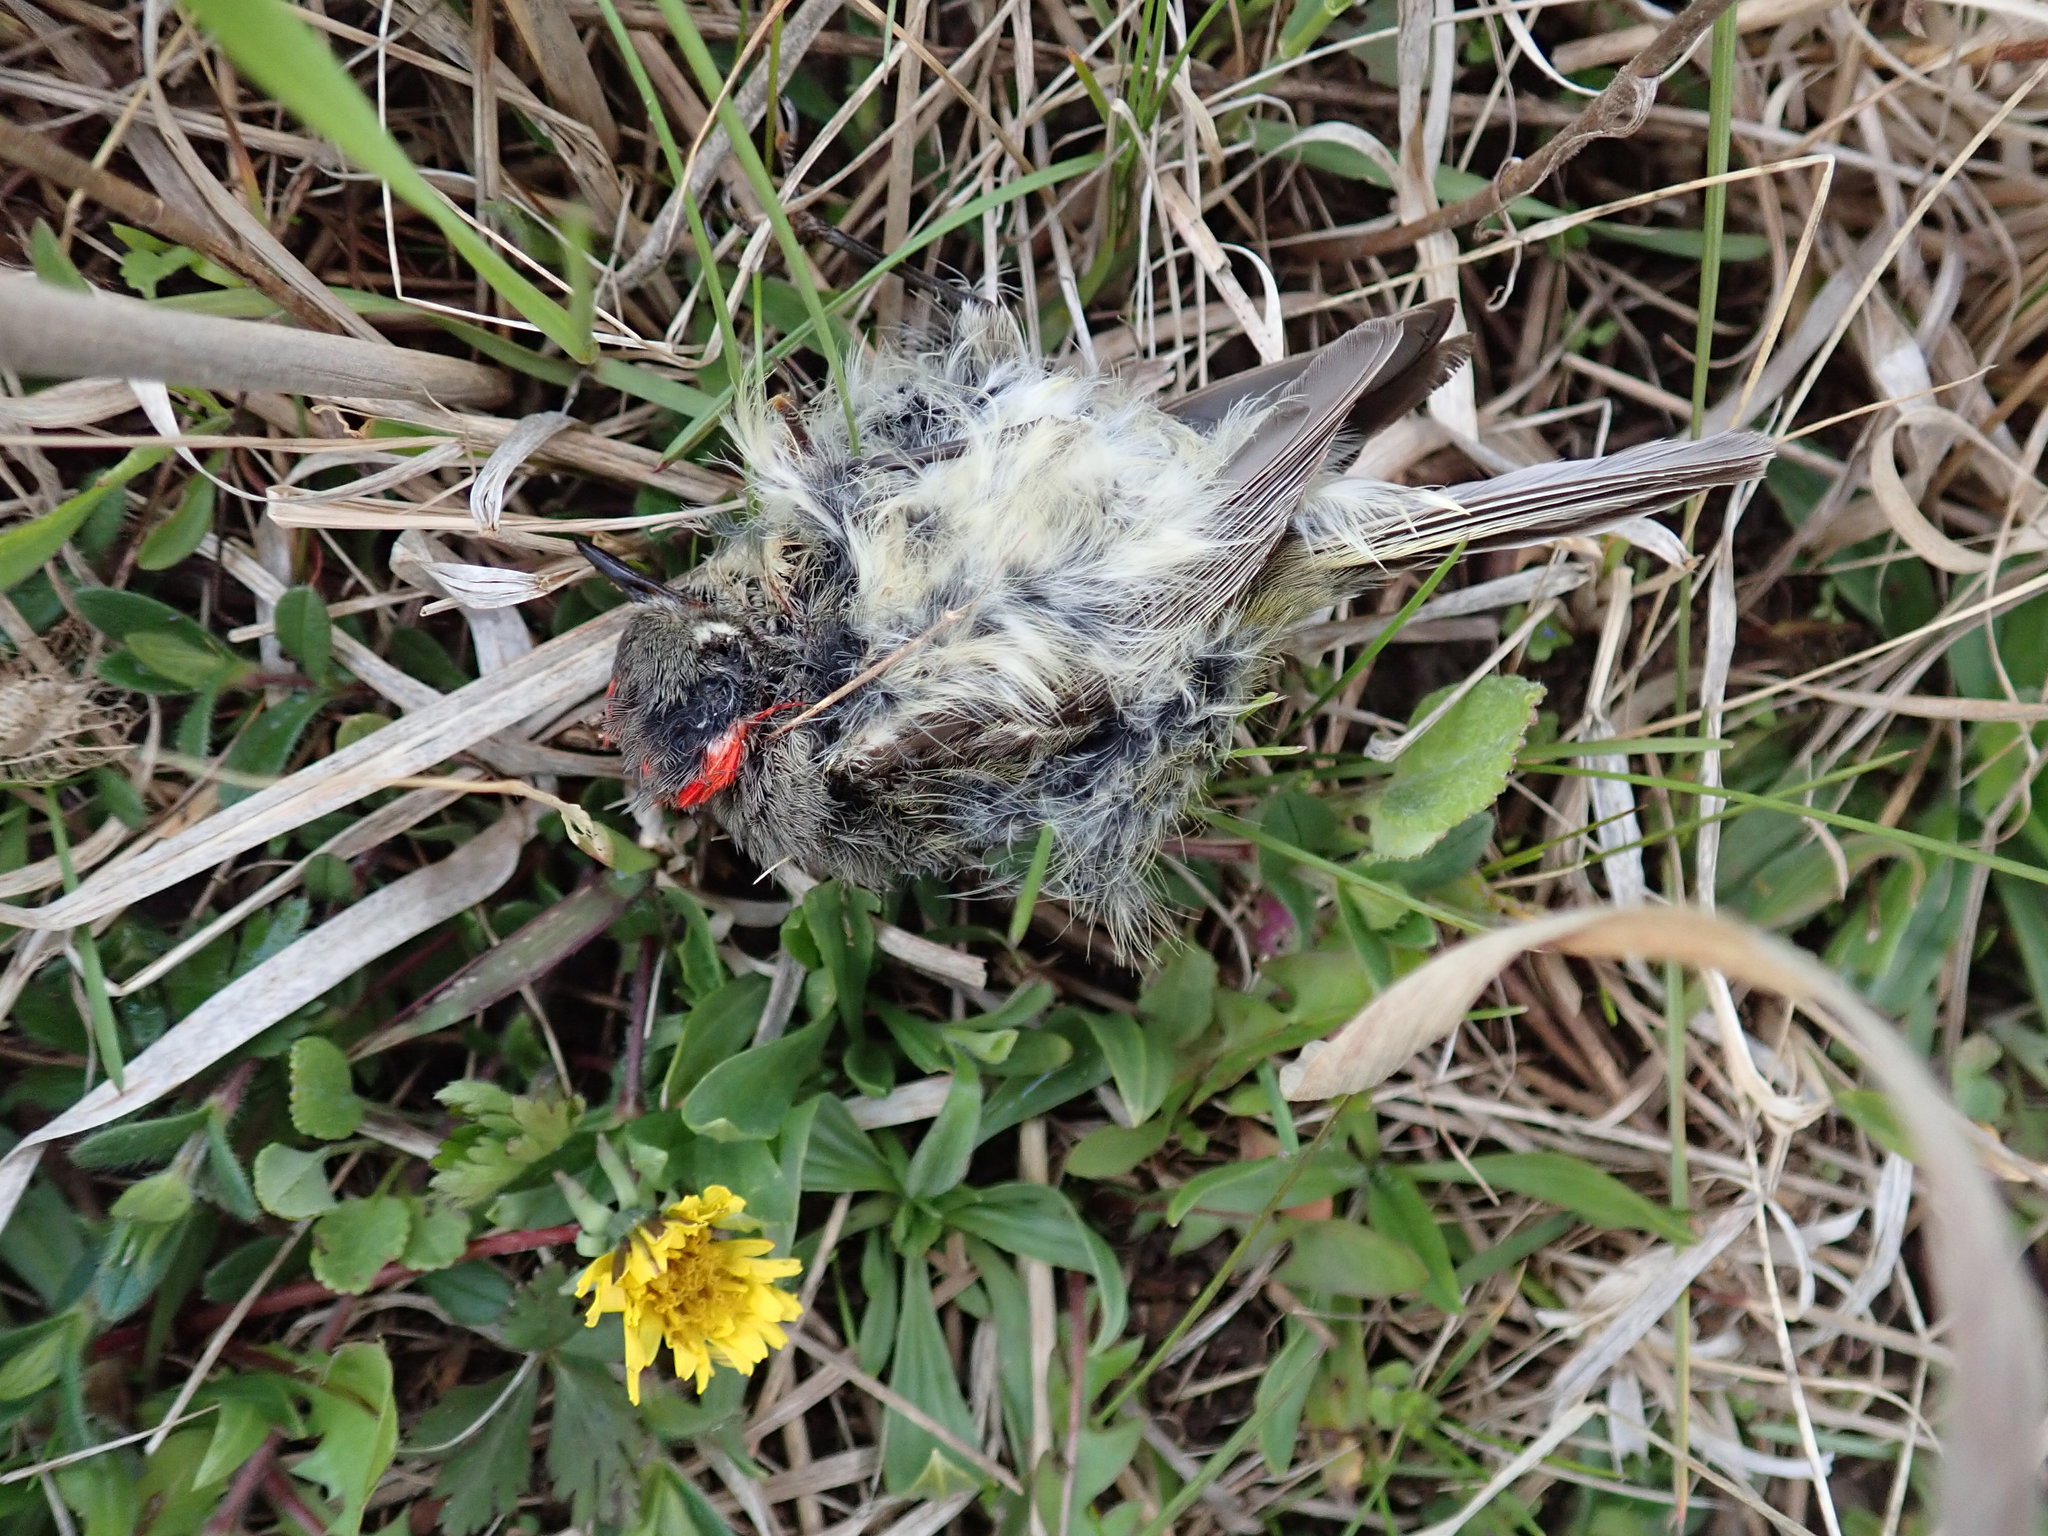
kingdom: Animalia
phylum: Chordata
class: Aves
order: Passeriformes
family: Regulidae
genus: Regulus
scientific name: Regulus calendula
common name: Ruby-crowned kinglet
